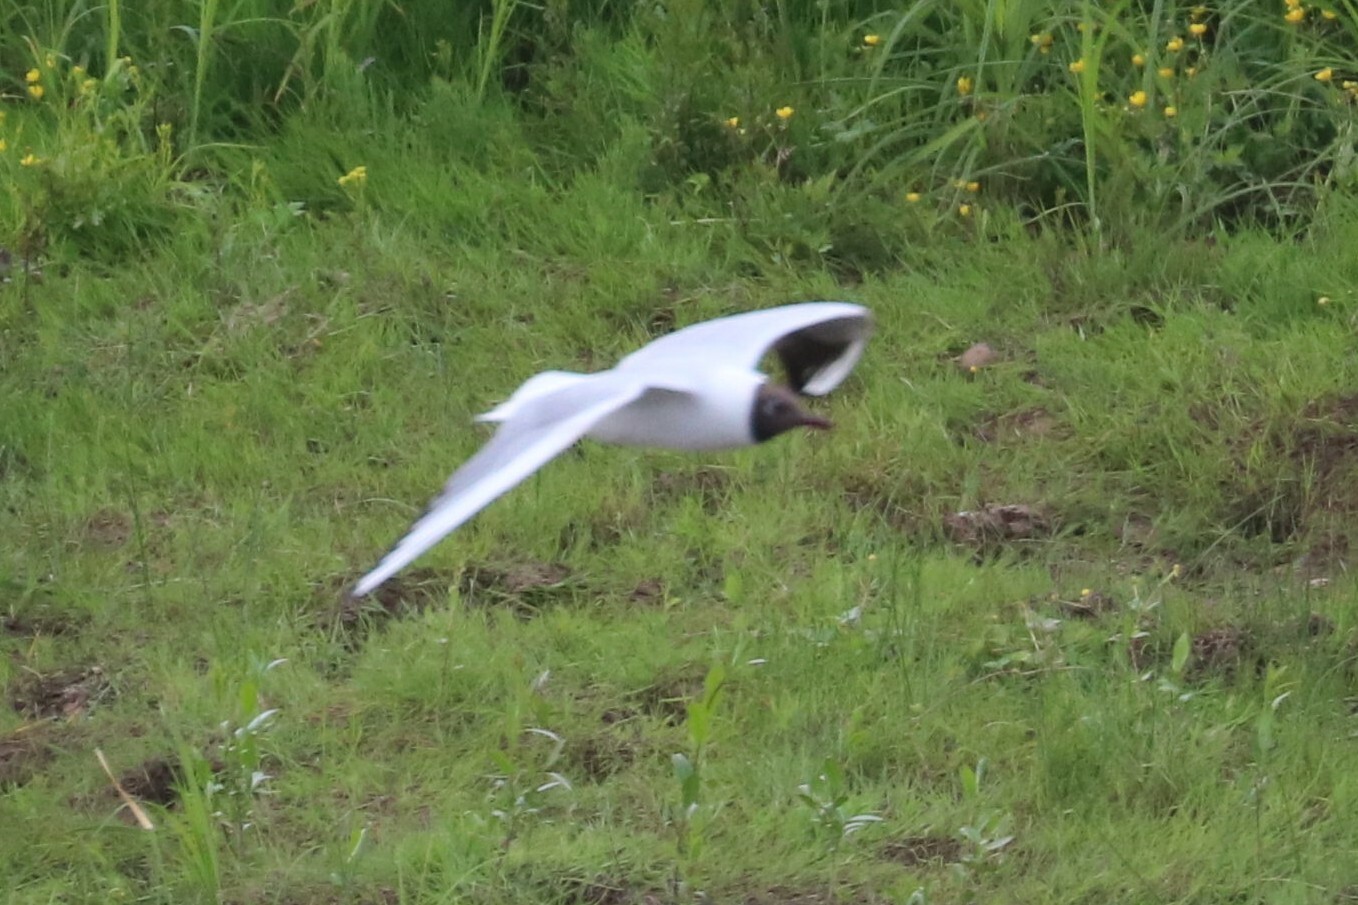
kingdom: Animalia
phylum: Chordata
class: Aves
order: Charadriiformes
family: Laridae
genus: Chroicocephalus
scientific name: Chroicocephalus ridibundus
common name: Black-headed gull
